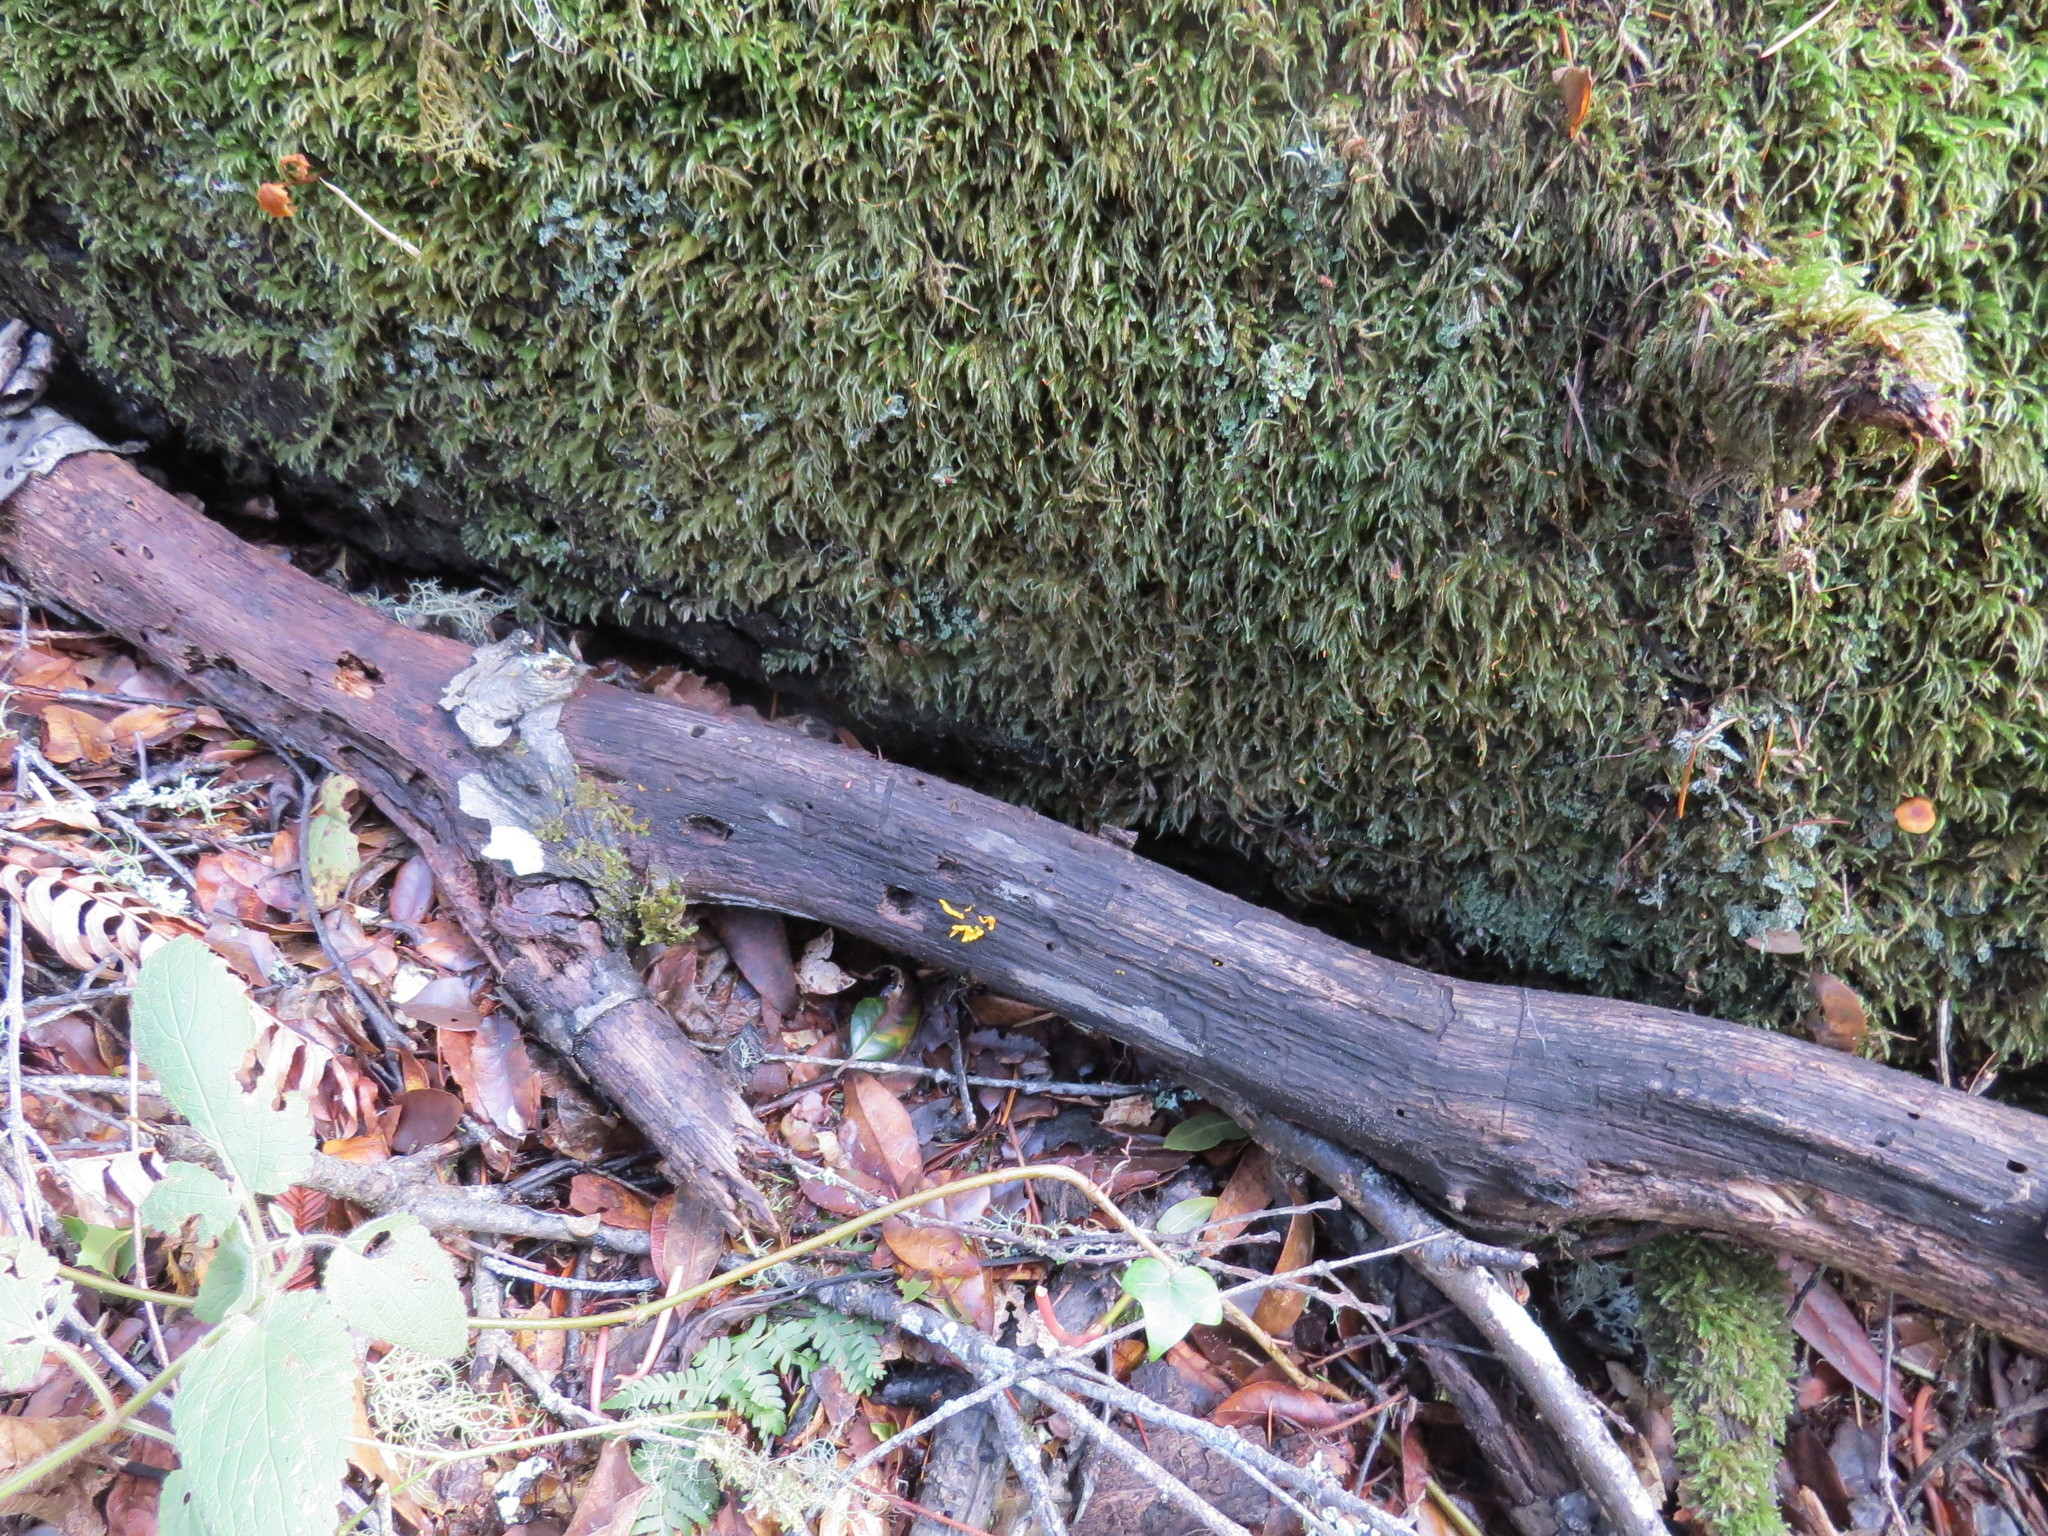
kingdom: Fungi
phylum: Basidiomycota
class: Dacrymycetes
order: Dacrymycetales
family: Dacrymycetaceae
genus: Calocera
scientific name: Calocera cornea
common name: Small stagshorn
